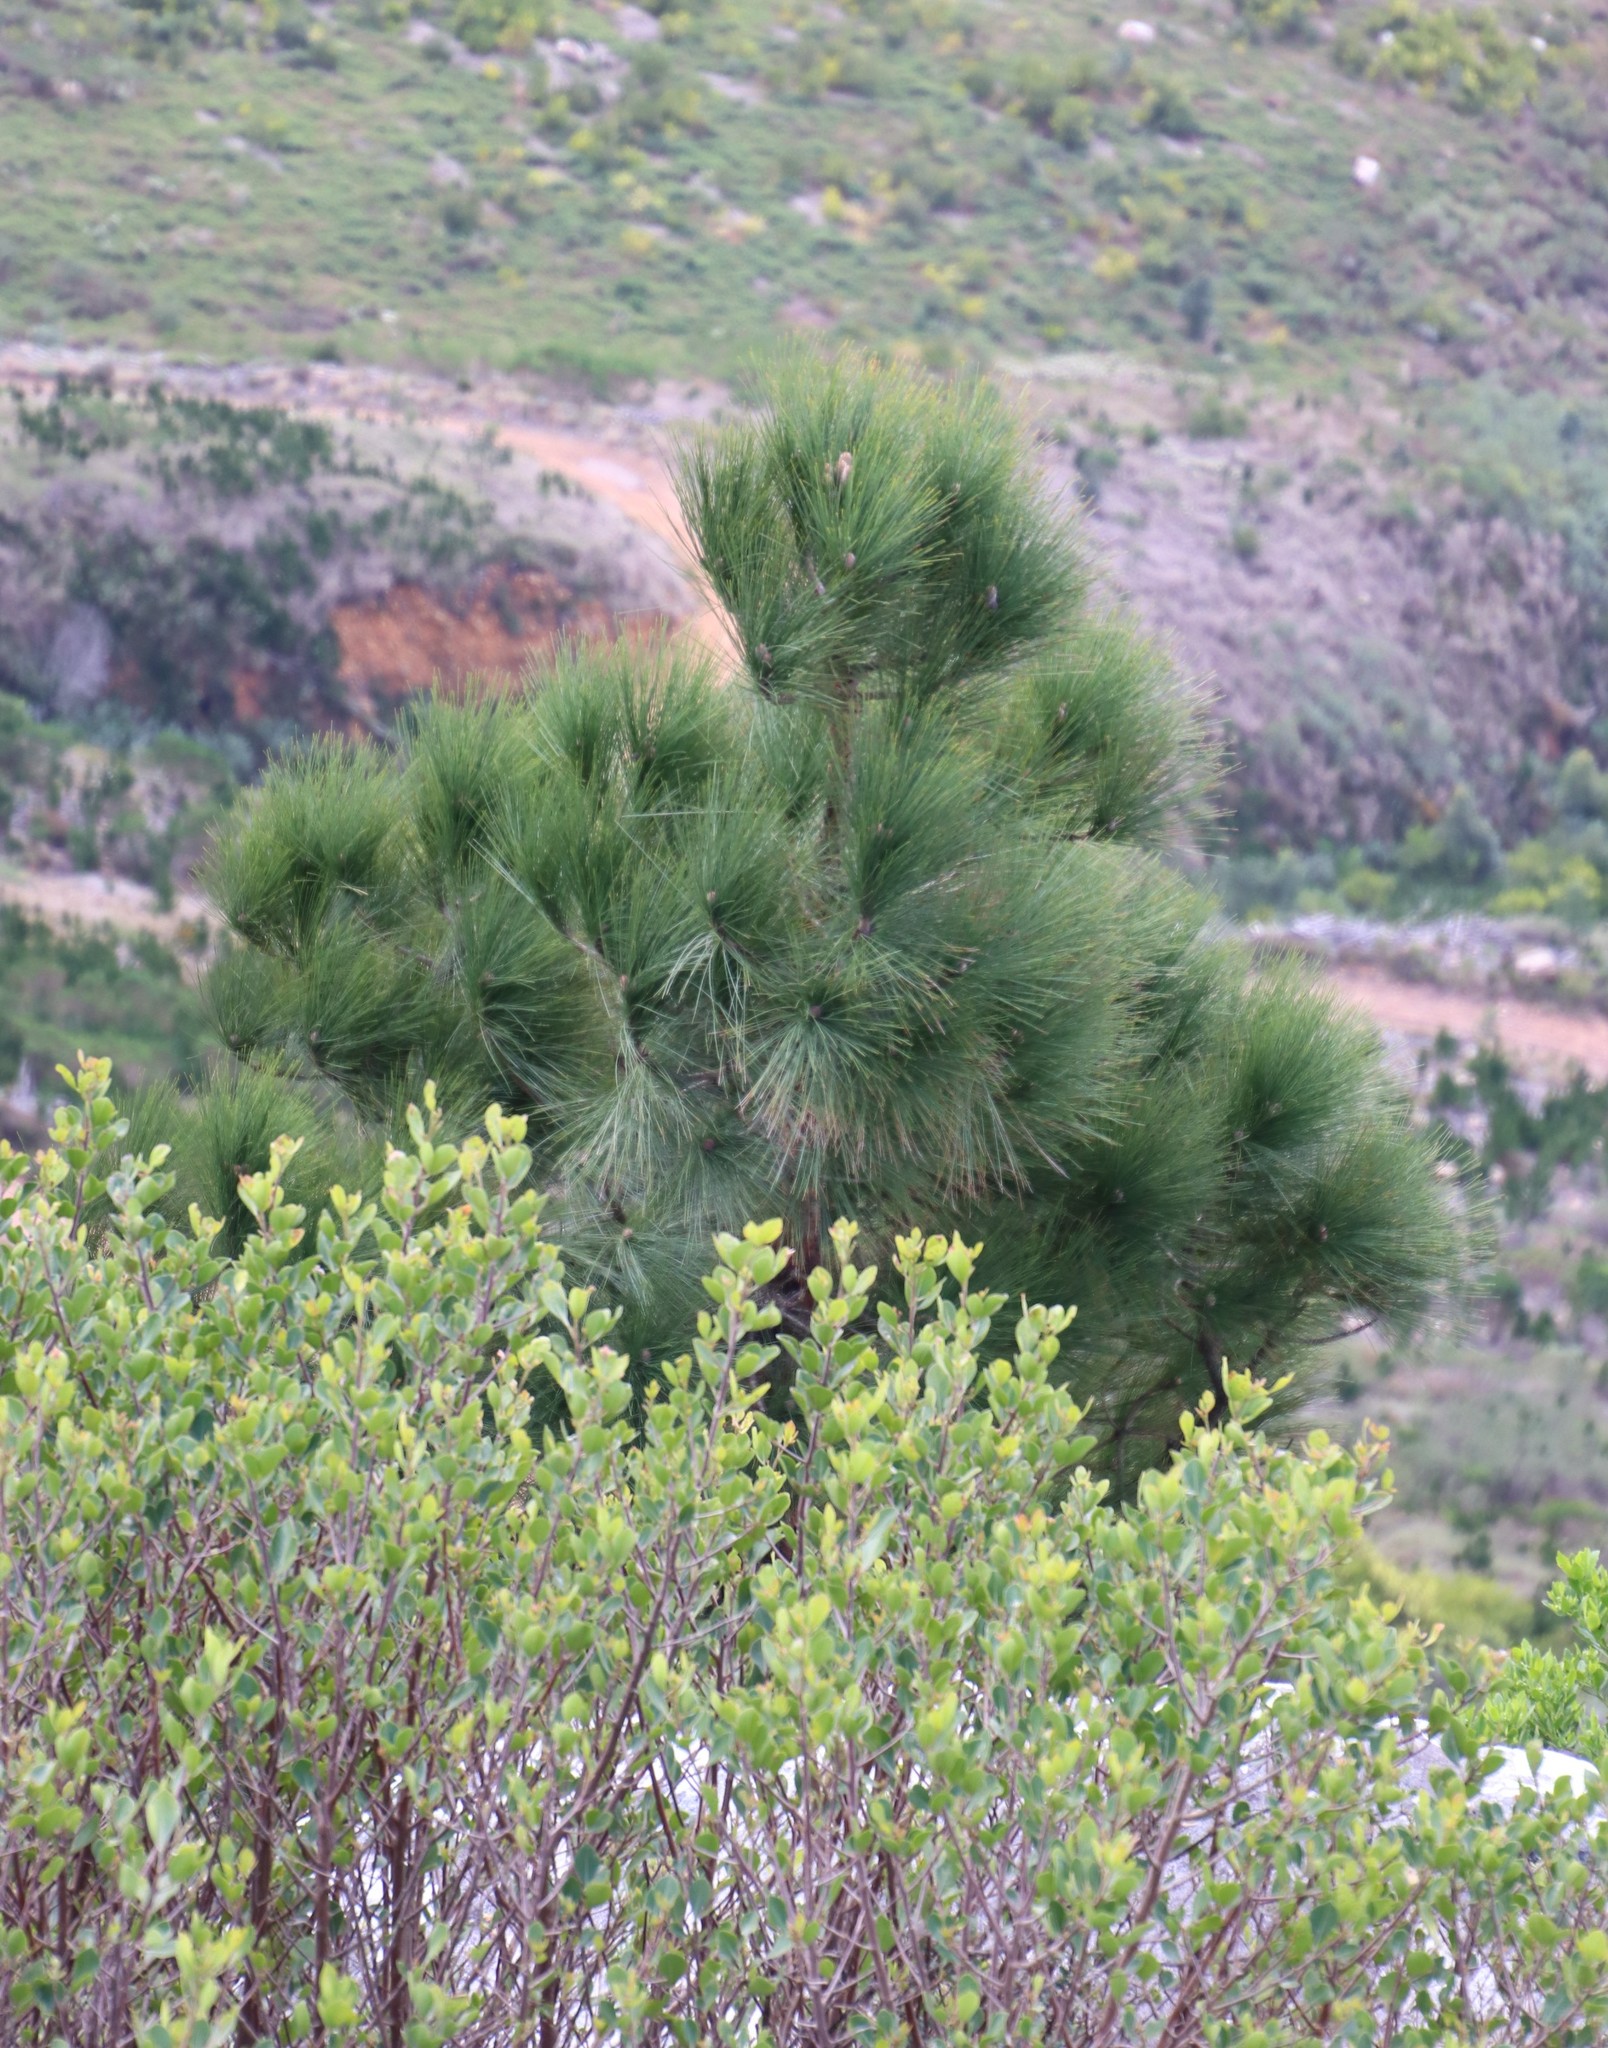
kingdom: Plantae
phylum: Tracheophyta
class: Pinopsida
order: Pinales
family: Pinaceae
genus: Pinus
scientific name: Pinus canariensis
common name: Canary islands pine
